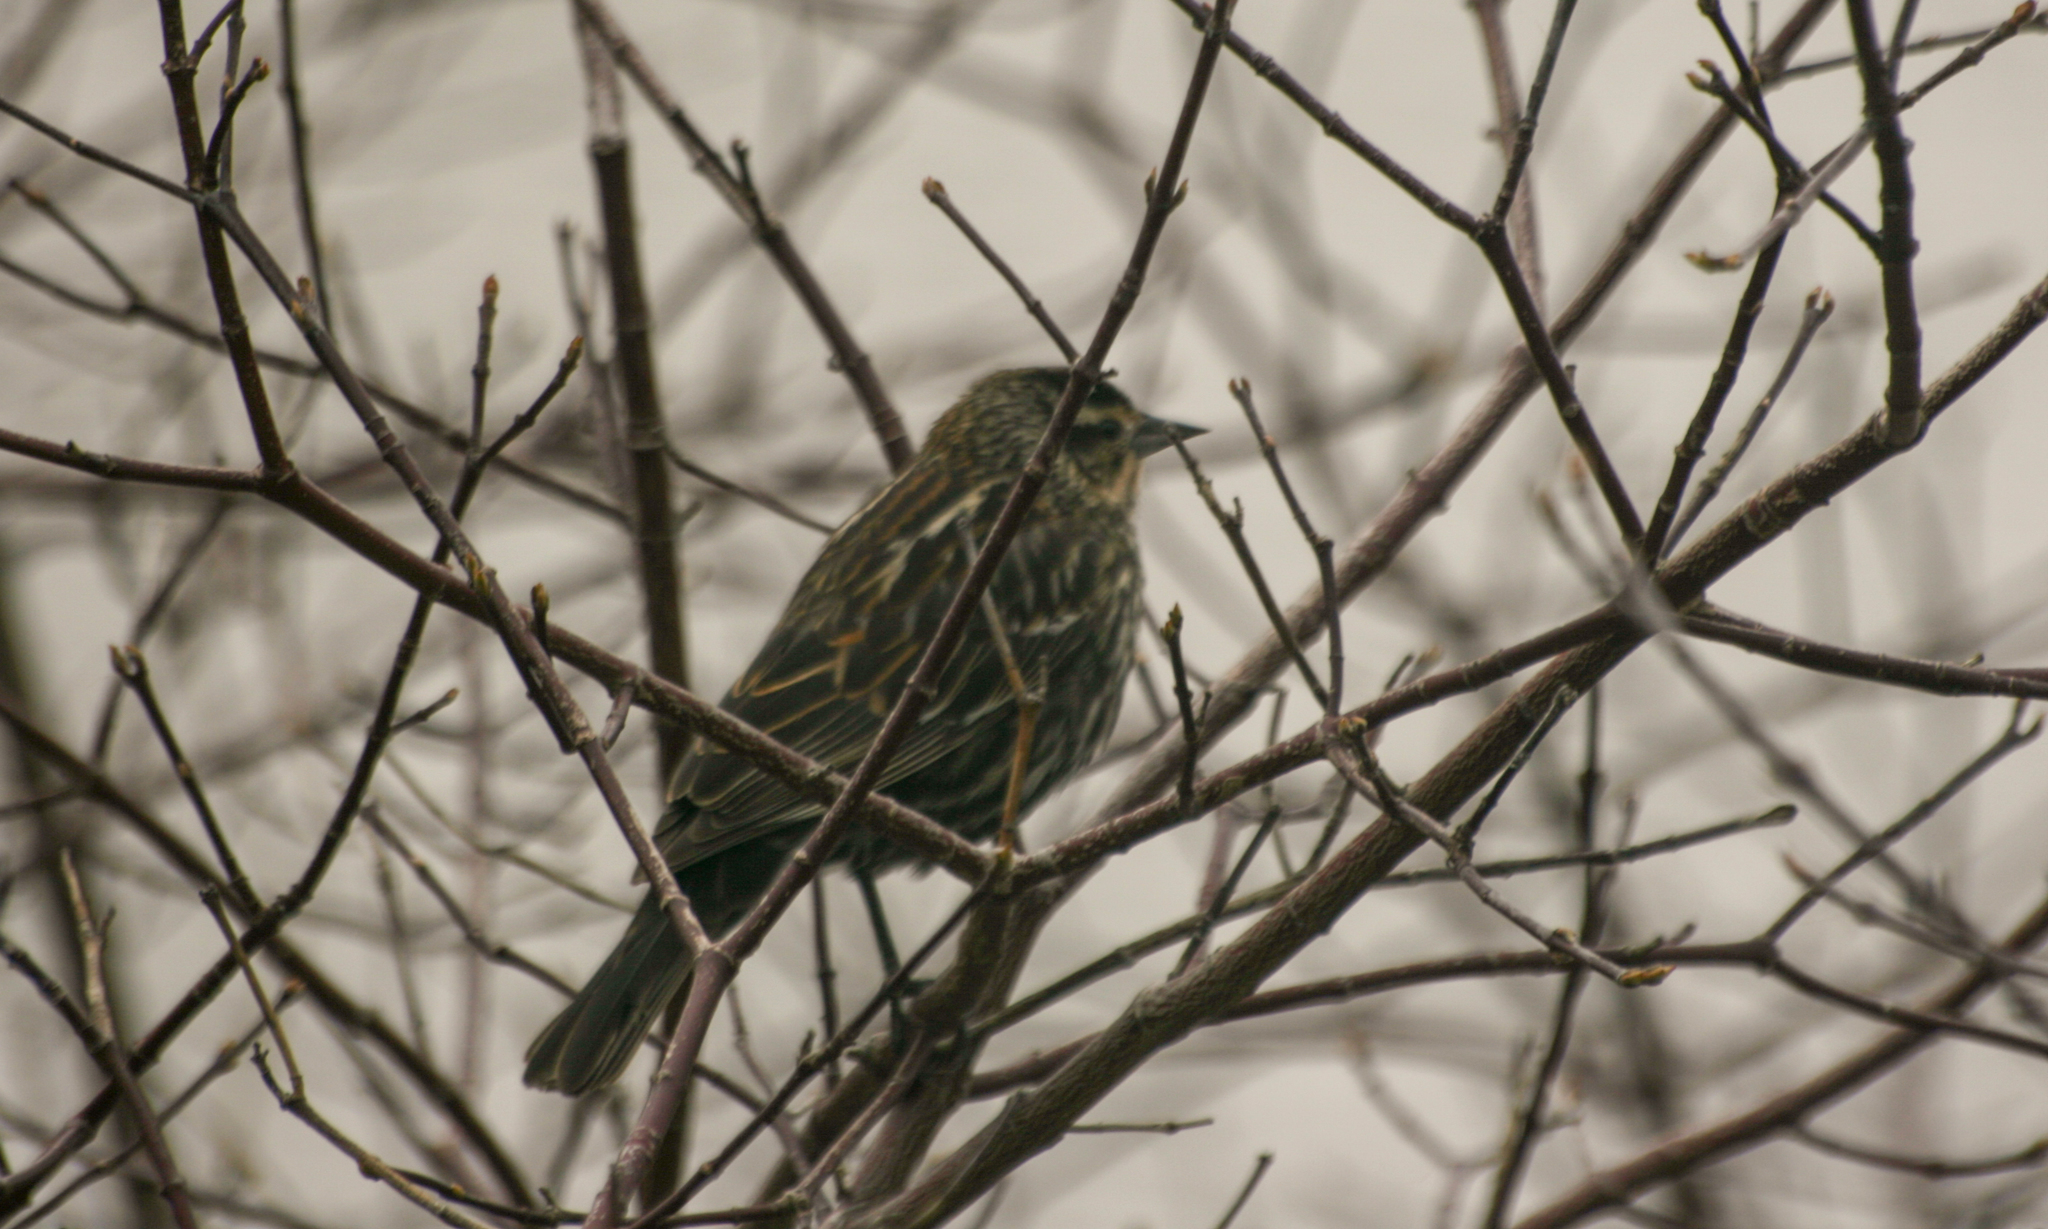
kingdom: Animalia
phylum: Chordata
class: Aves
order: Passeriformes
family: Icteridae
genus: Agelaius
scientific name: Agelaius phoeniceus
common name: Red-winged blackbird
